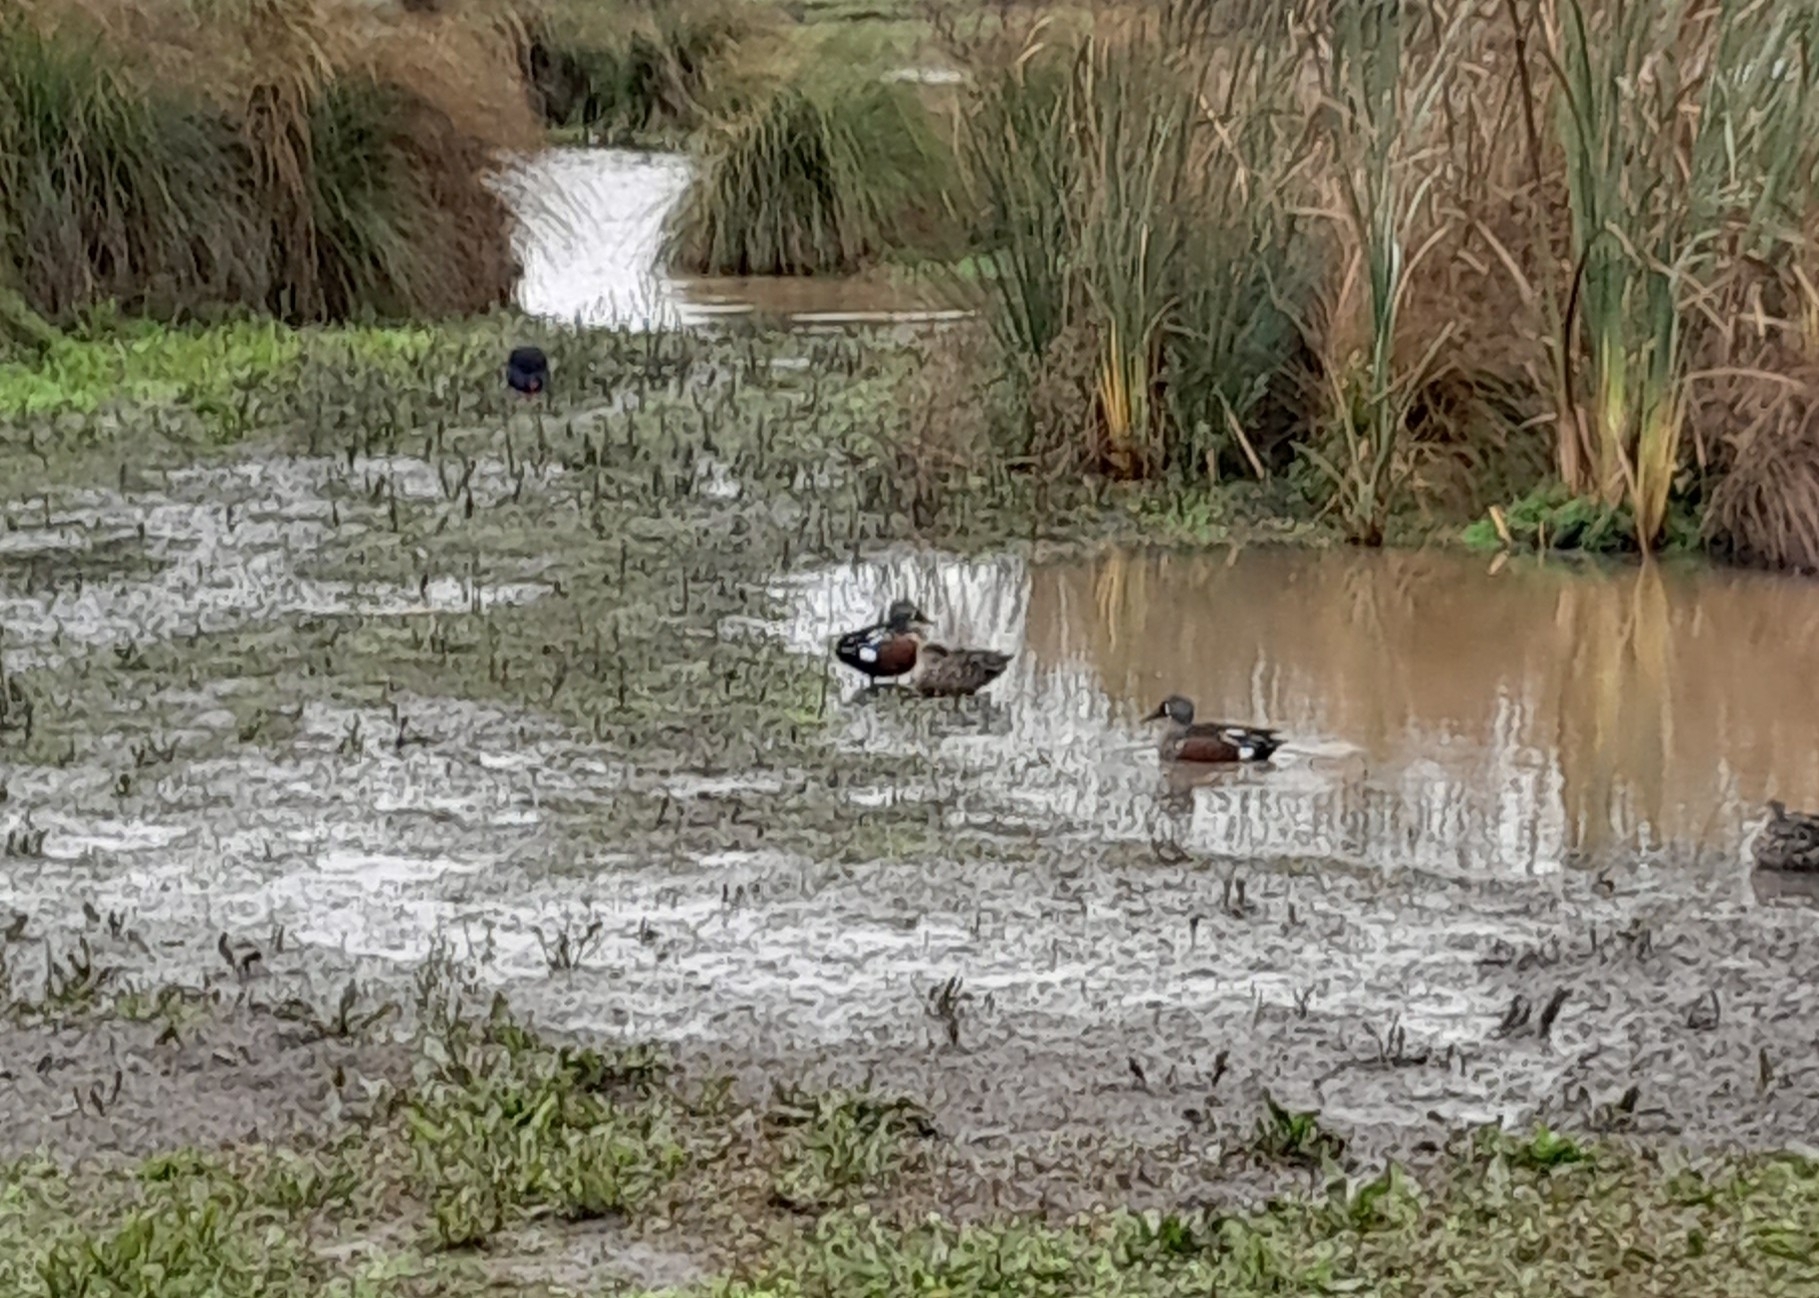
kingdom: Animalia
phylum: Chordata
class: Aves
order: Anseriformes
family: Anatidae
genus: Spatula
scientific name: Spatula rhynchotis
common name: Australian shoveler
